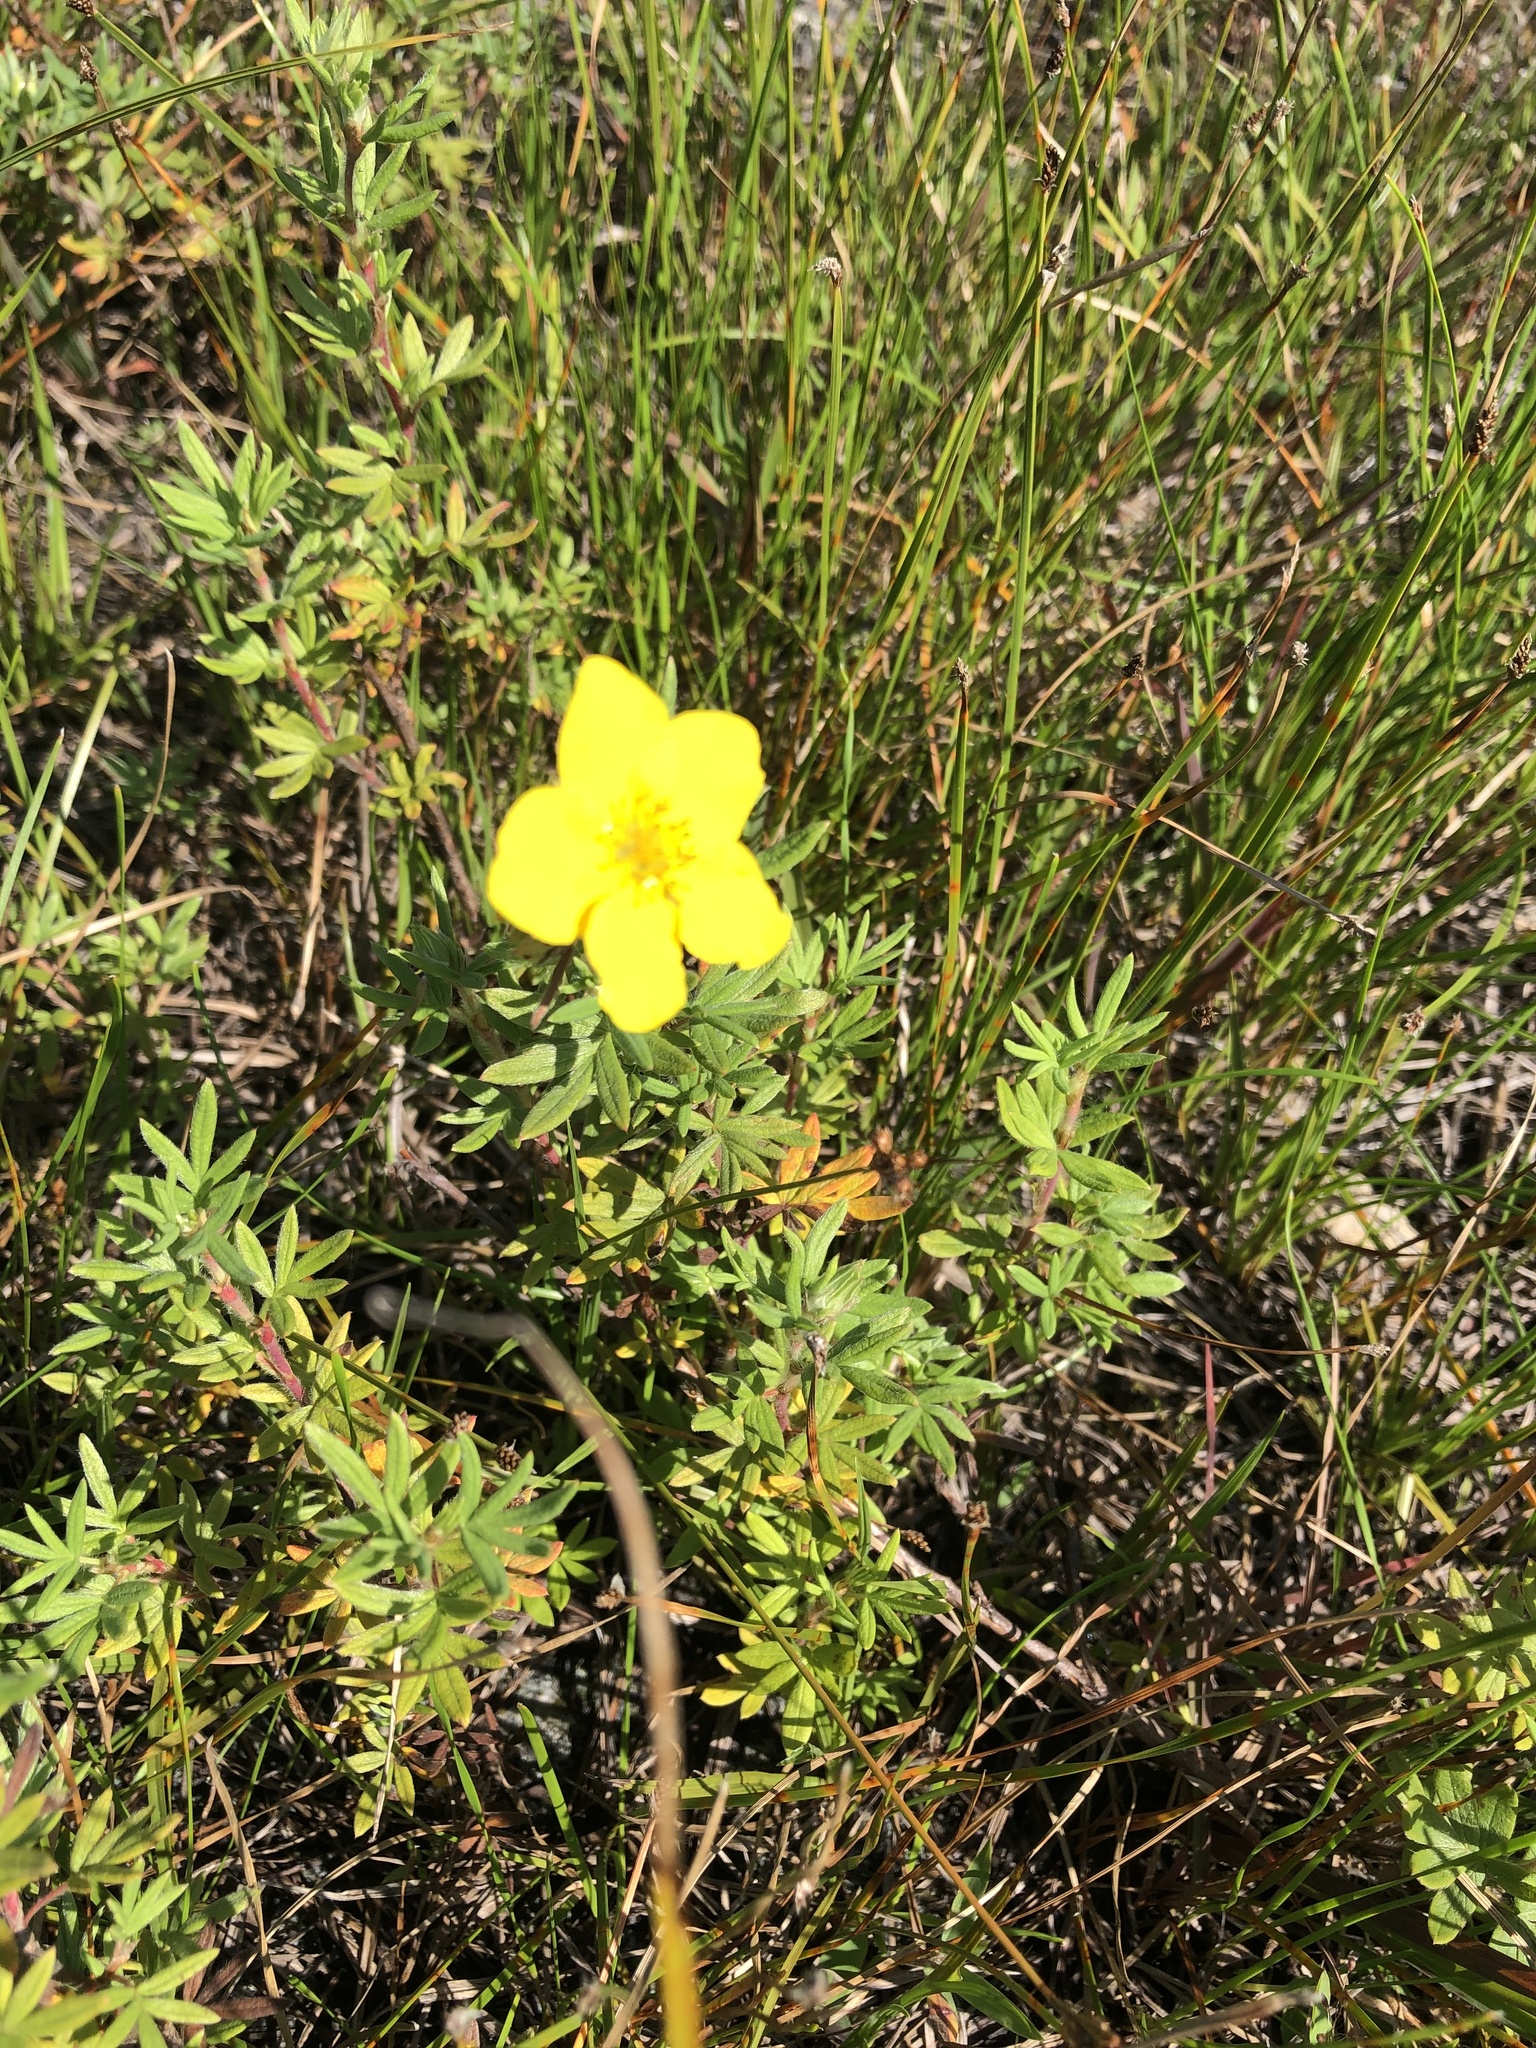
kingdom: Plantae
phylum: Tracheophyta
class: Magnoliopsida
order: Rosales
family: Rosaceae
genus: Dasiphora
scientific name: Dasiphora fruticosa
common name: Shrubby cinquefoil
